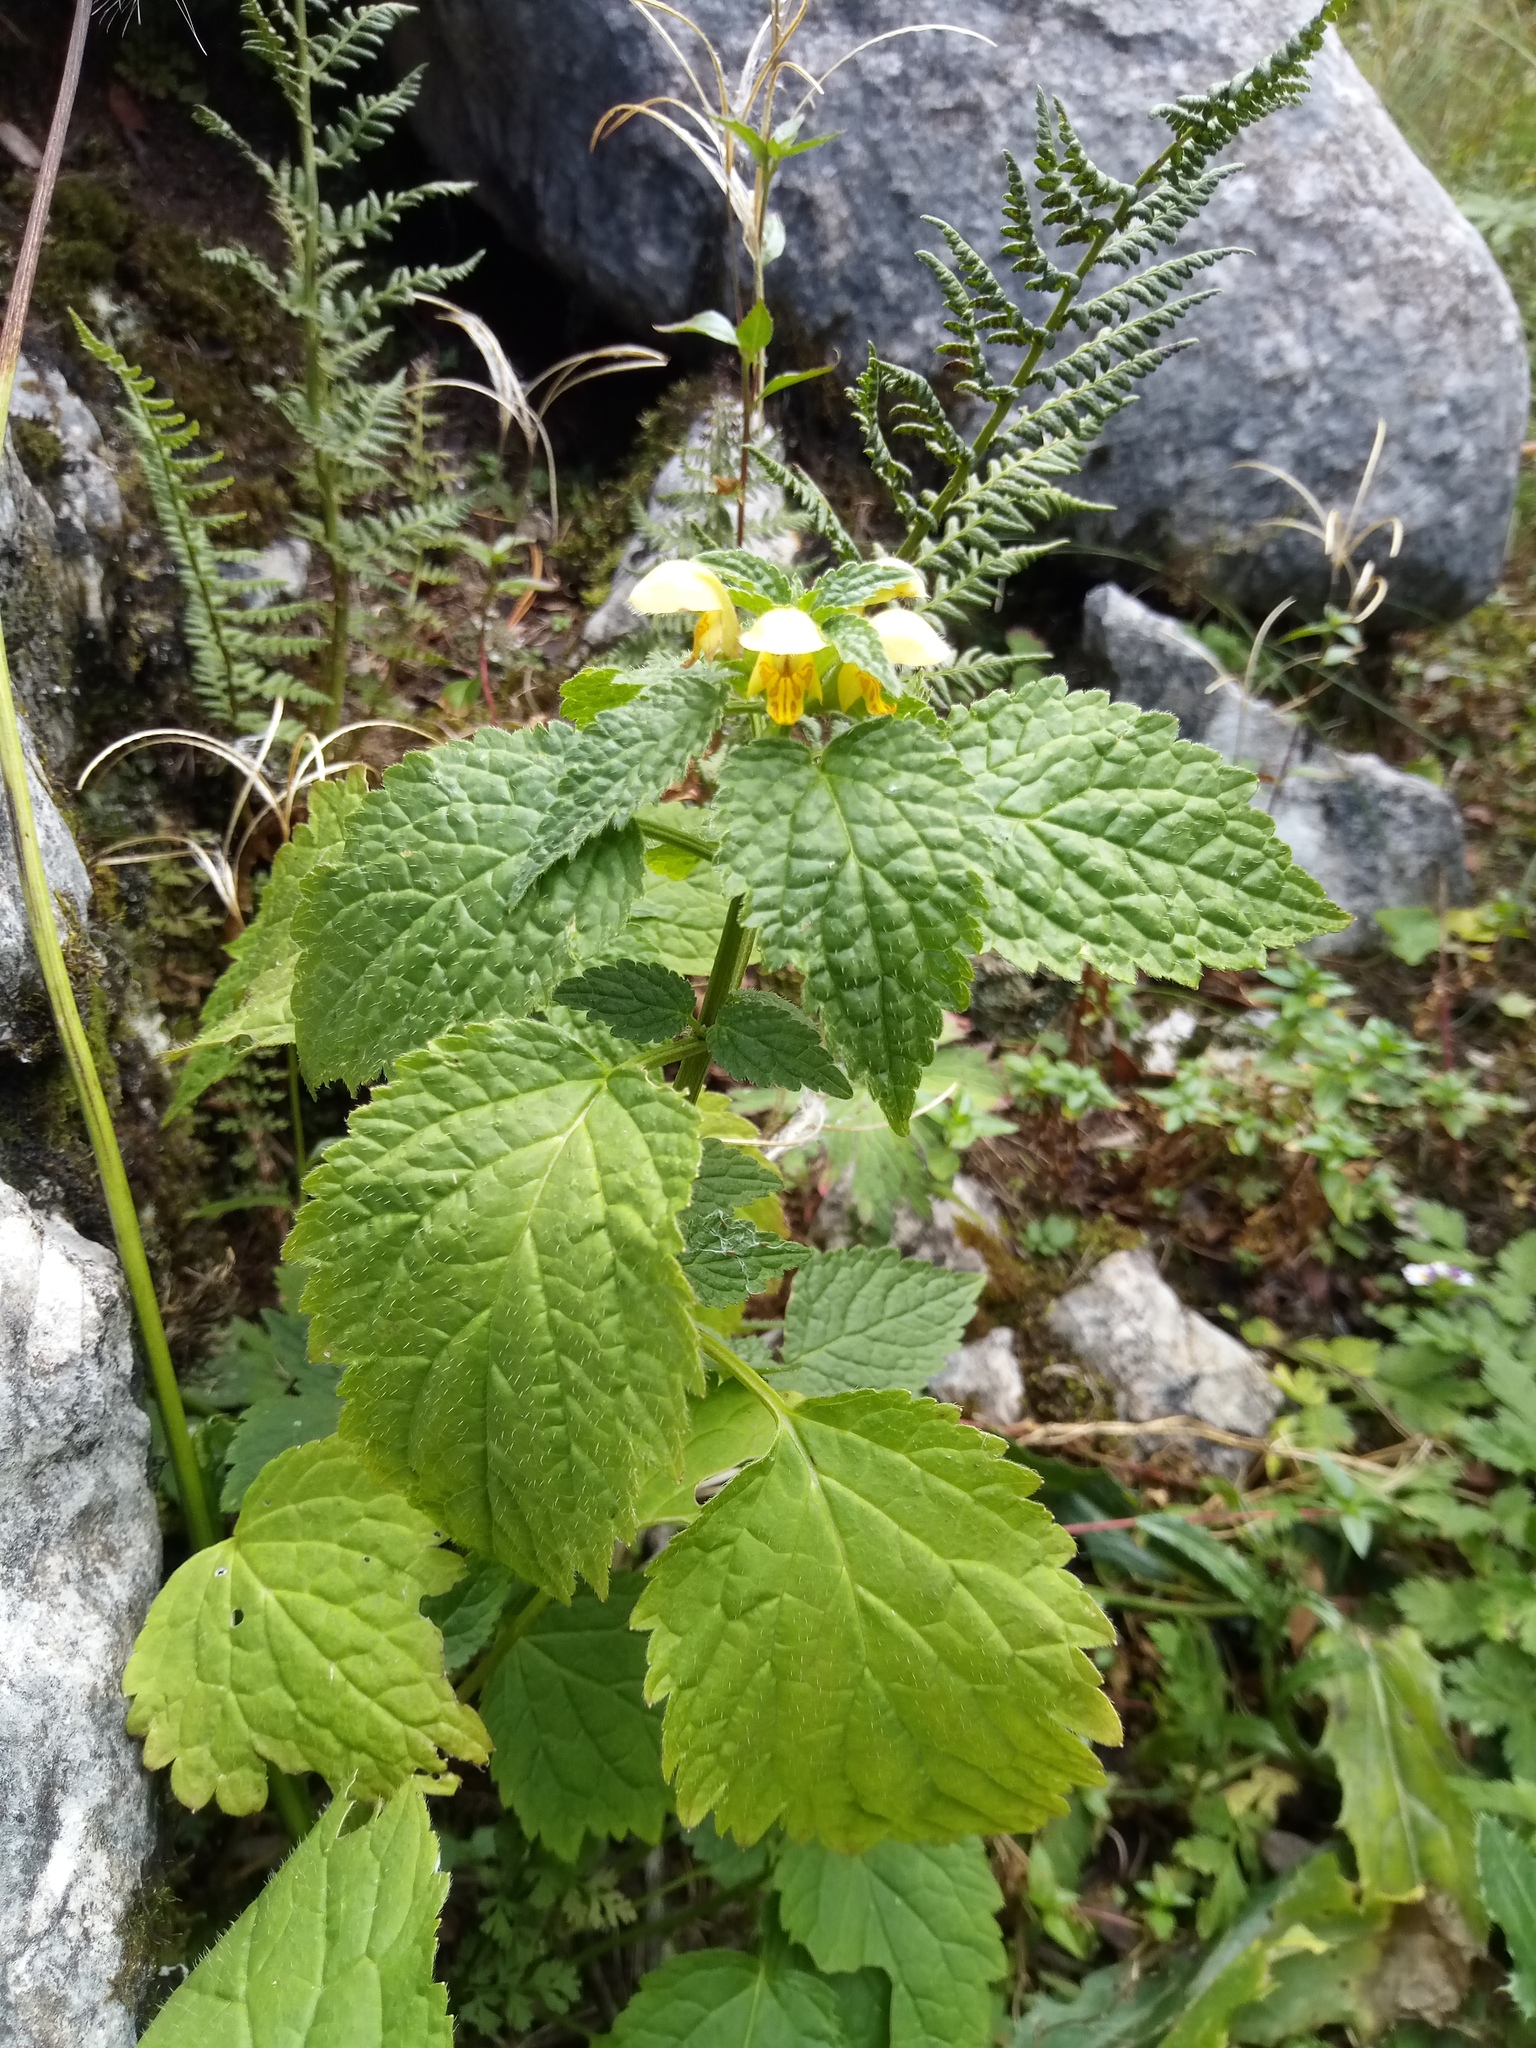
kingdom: Plantae
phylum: Tracheophyta
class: Magnoliopsida
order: Lamiales
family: Lamiaceae
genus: Lamium
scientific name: Lamium galeobdolon
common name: Yellow archangel
